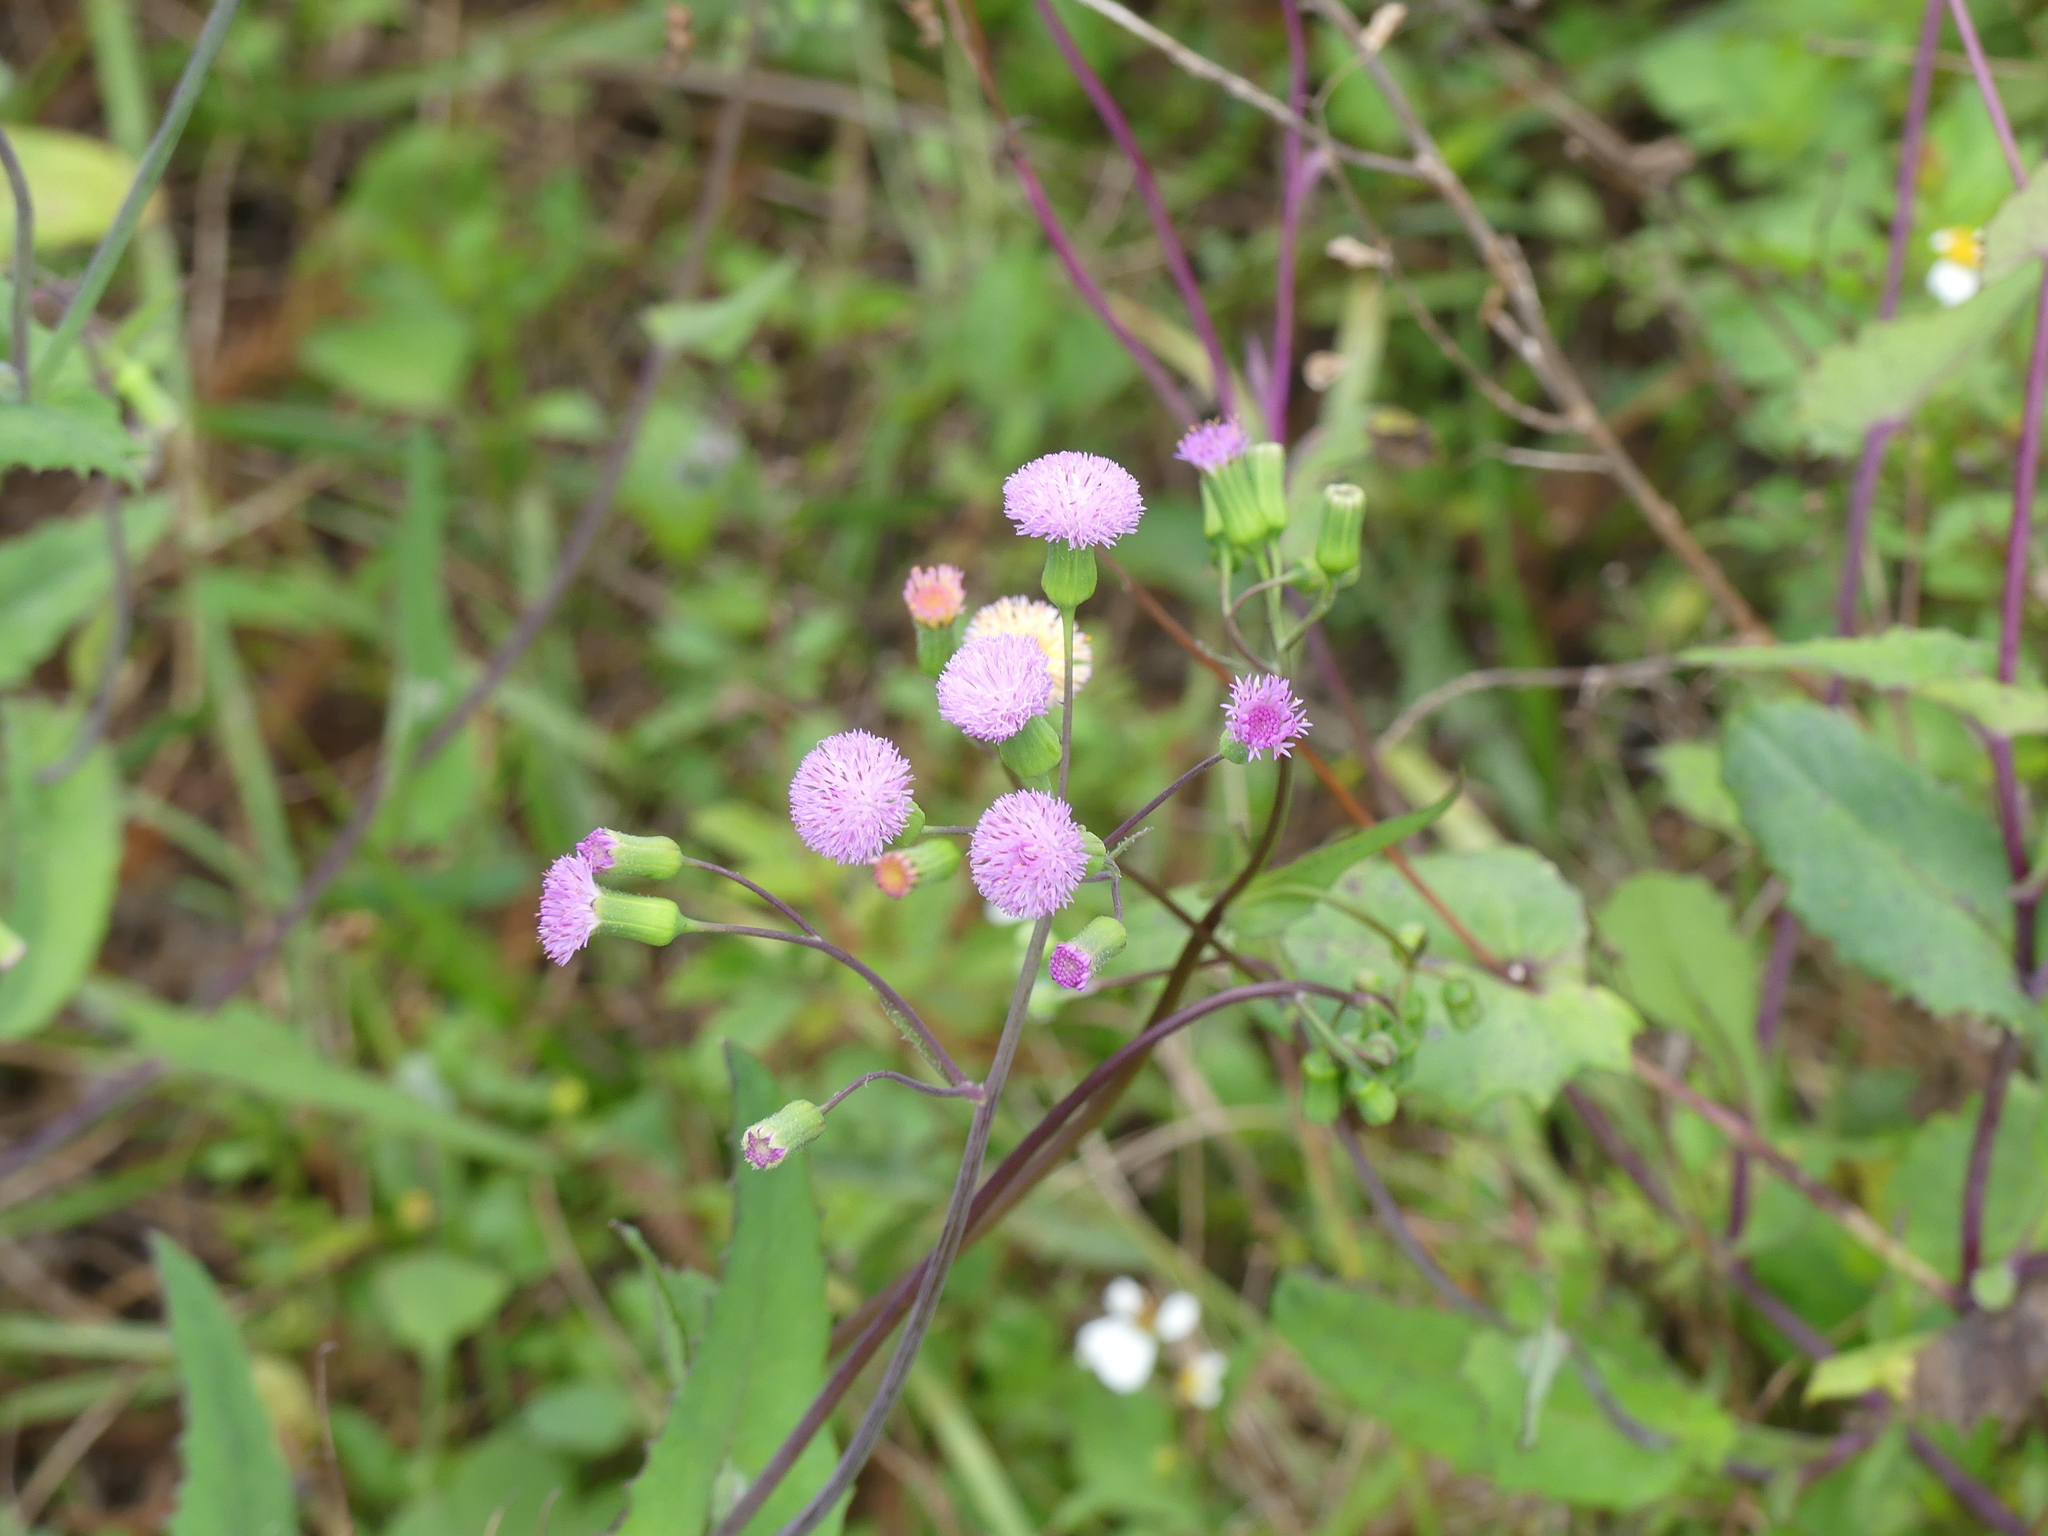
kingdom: Plantae
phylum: Tracheophyta
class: Magnoliopsida
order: Asterales
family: Asteraceae
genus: Emilia
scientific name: Emilia sonchifolia
